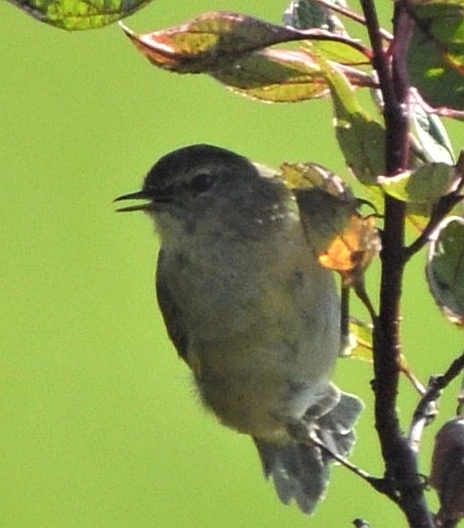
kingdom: Animalia
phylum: Chordata
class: Aves
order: Passeriformes
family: Phylloscopidae
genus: Phylloscopus
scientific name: Phylloscopus collybita
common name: Common chiffchaff
